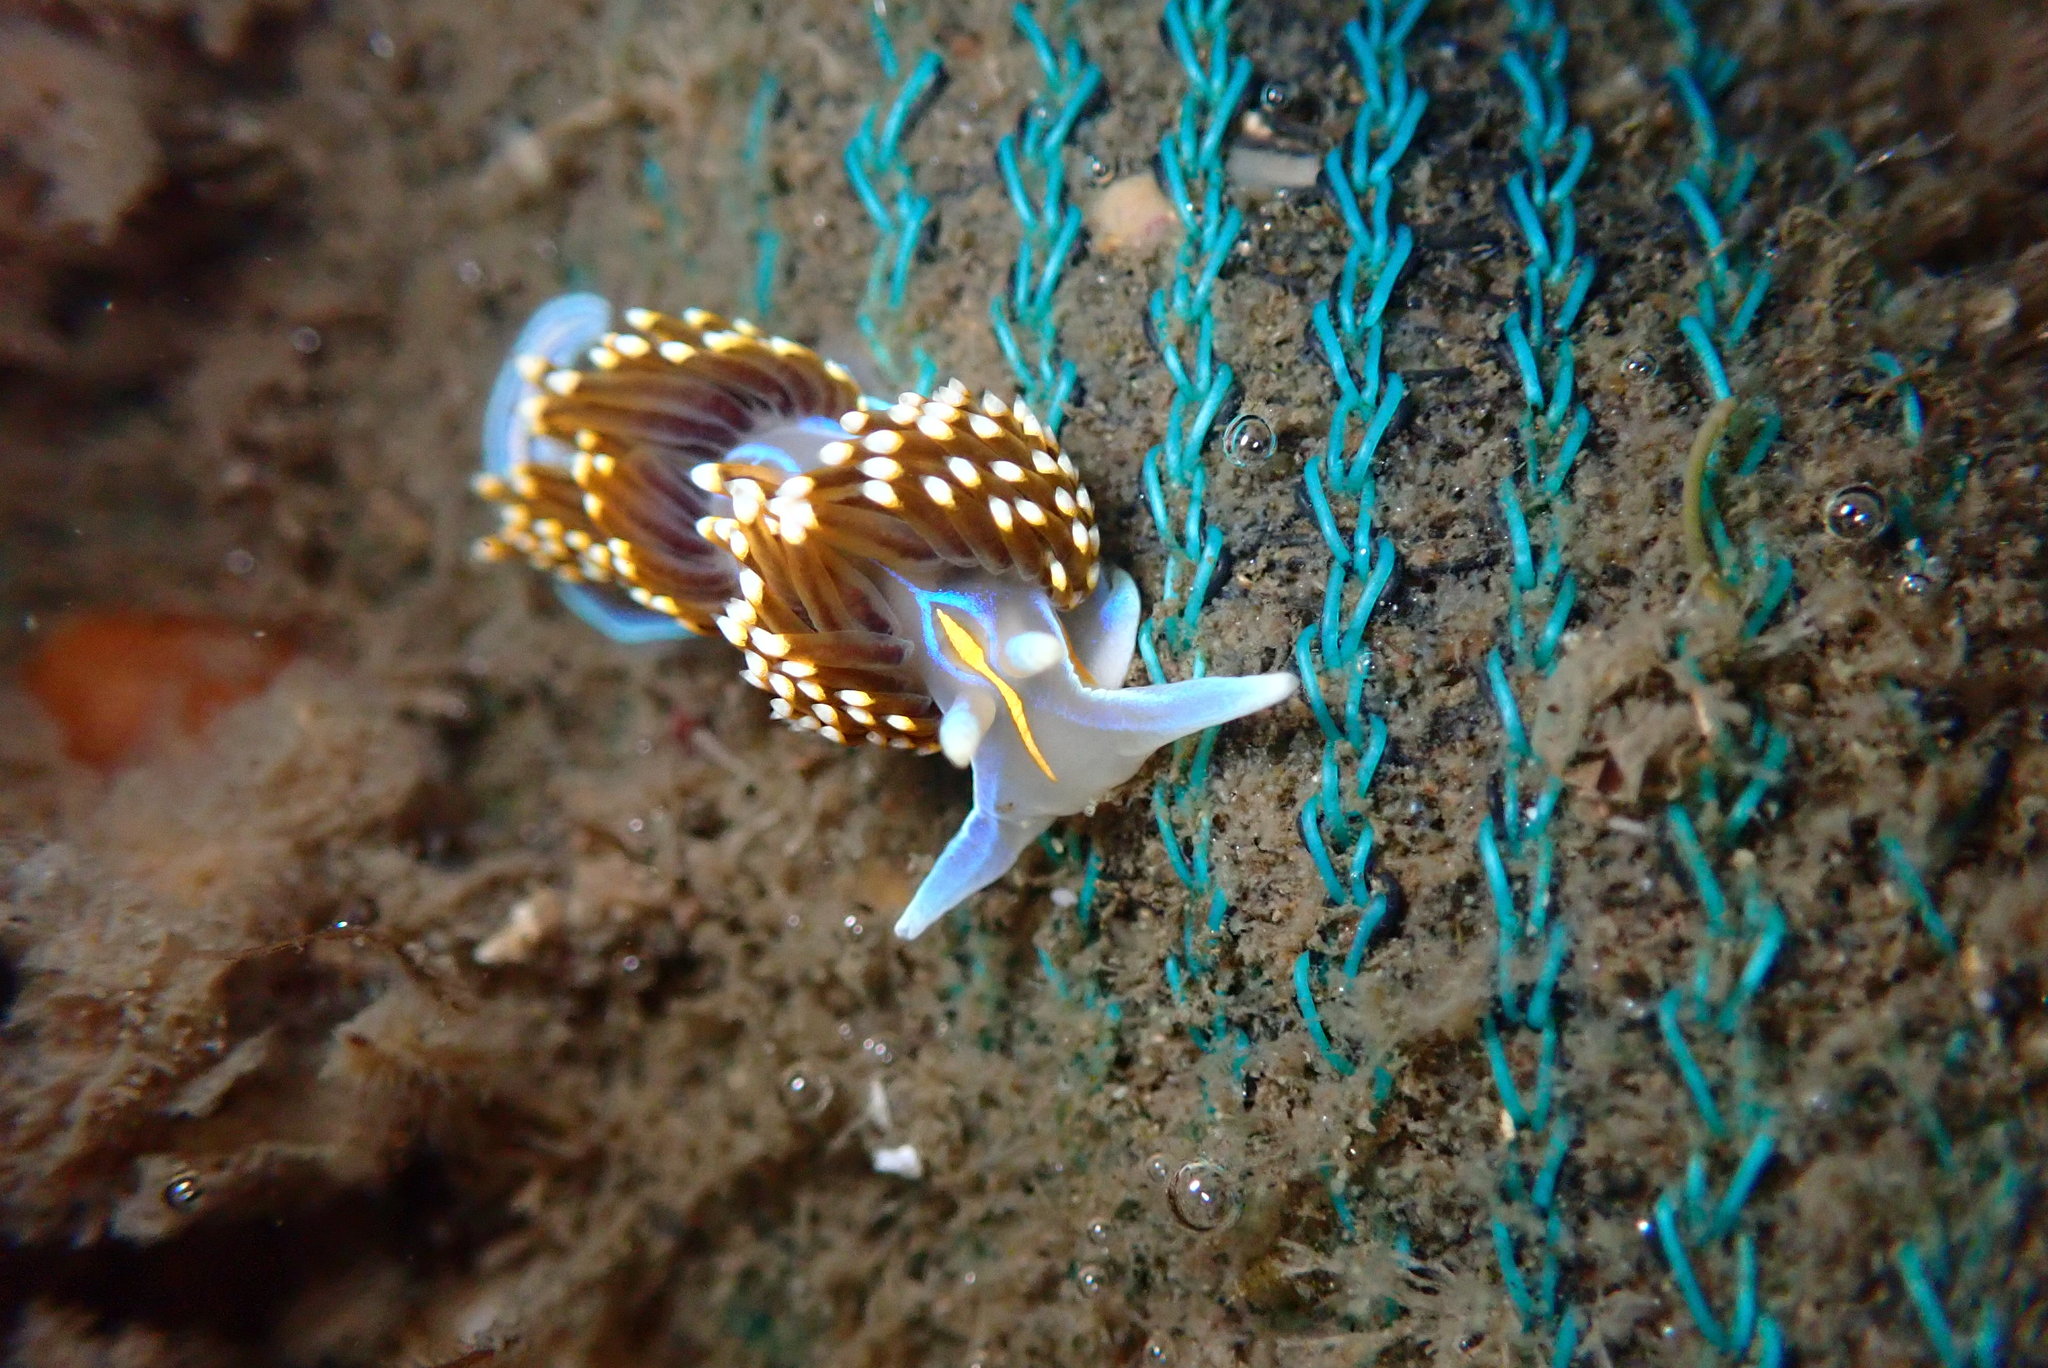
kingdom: Animalia
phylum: Mollusca
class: Gastropoda
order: Nudibranchia
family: Myrrhinidae
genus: Hermissenda
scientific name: Hermissenda opalescens
